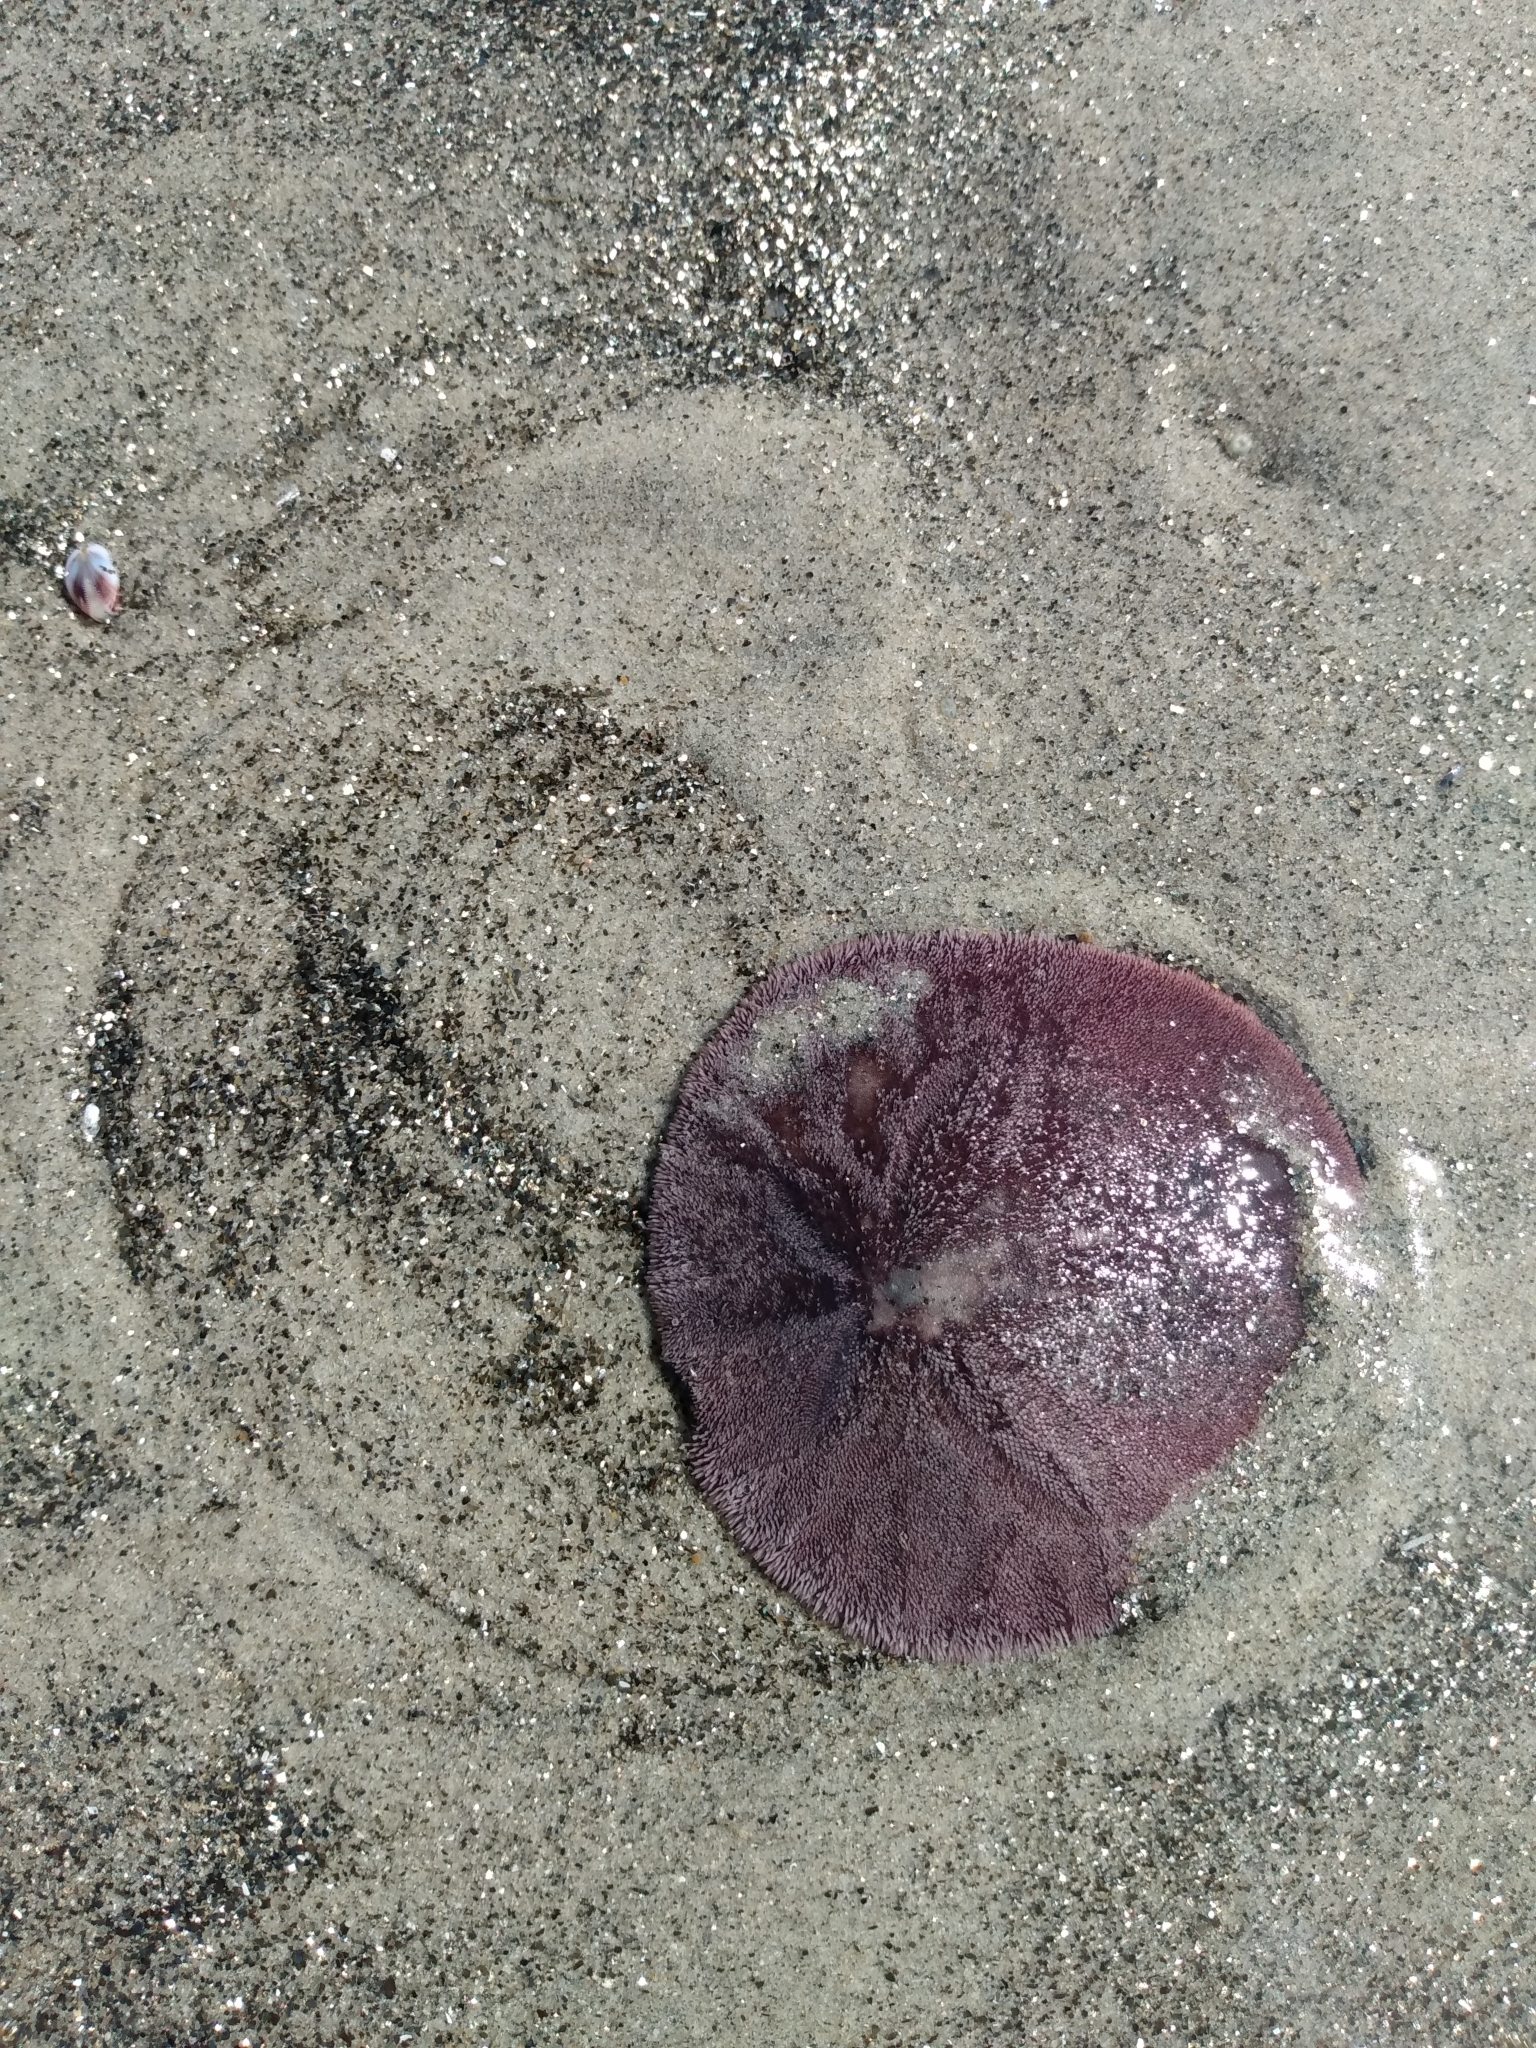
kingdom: Animalia
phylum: Echinodermata
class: Echinoidea
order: Echinolampadacea
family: Dendrasteridae
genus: Dendraster
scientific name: Dendraster excentricus
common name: Eccentric sand dollar sea urchin
